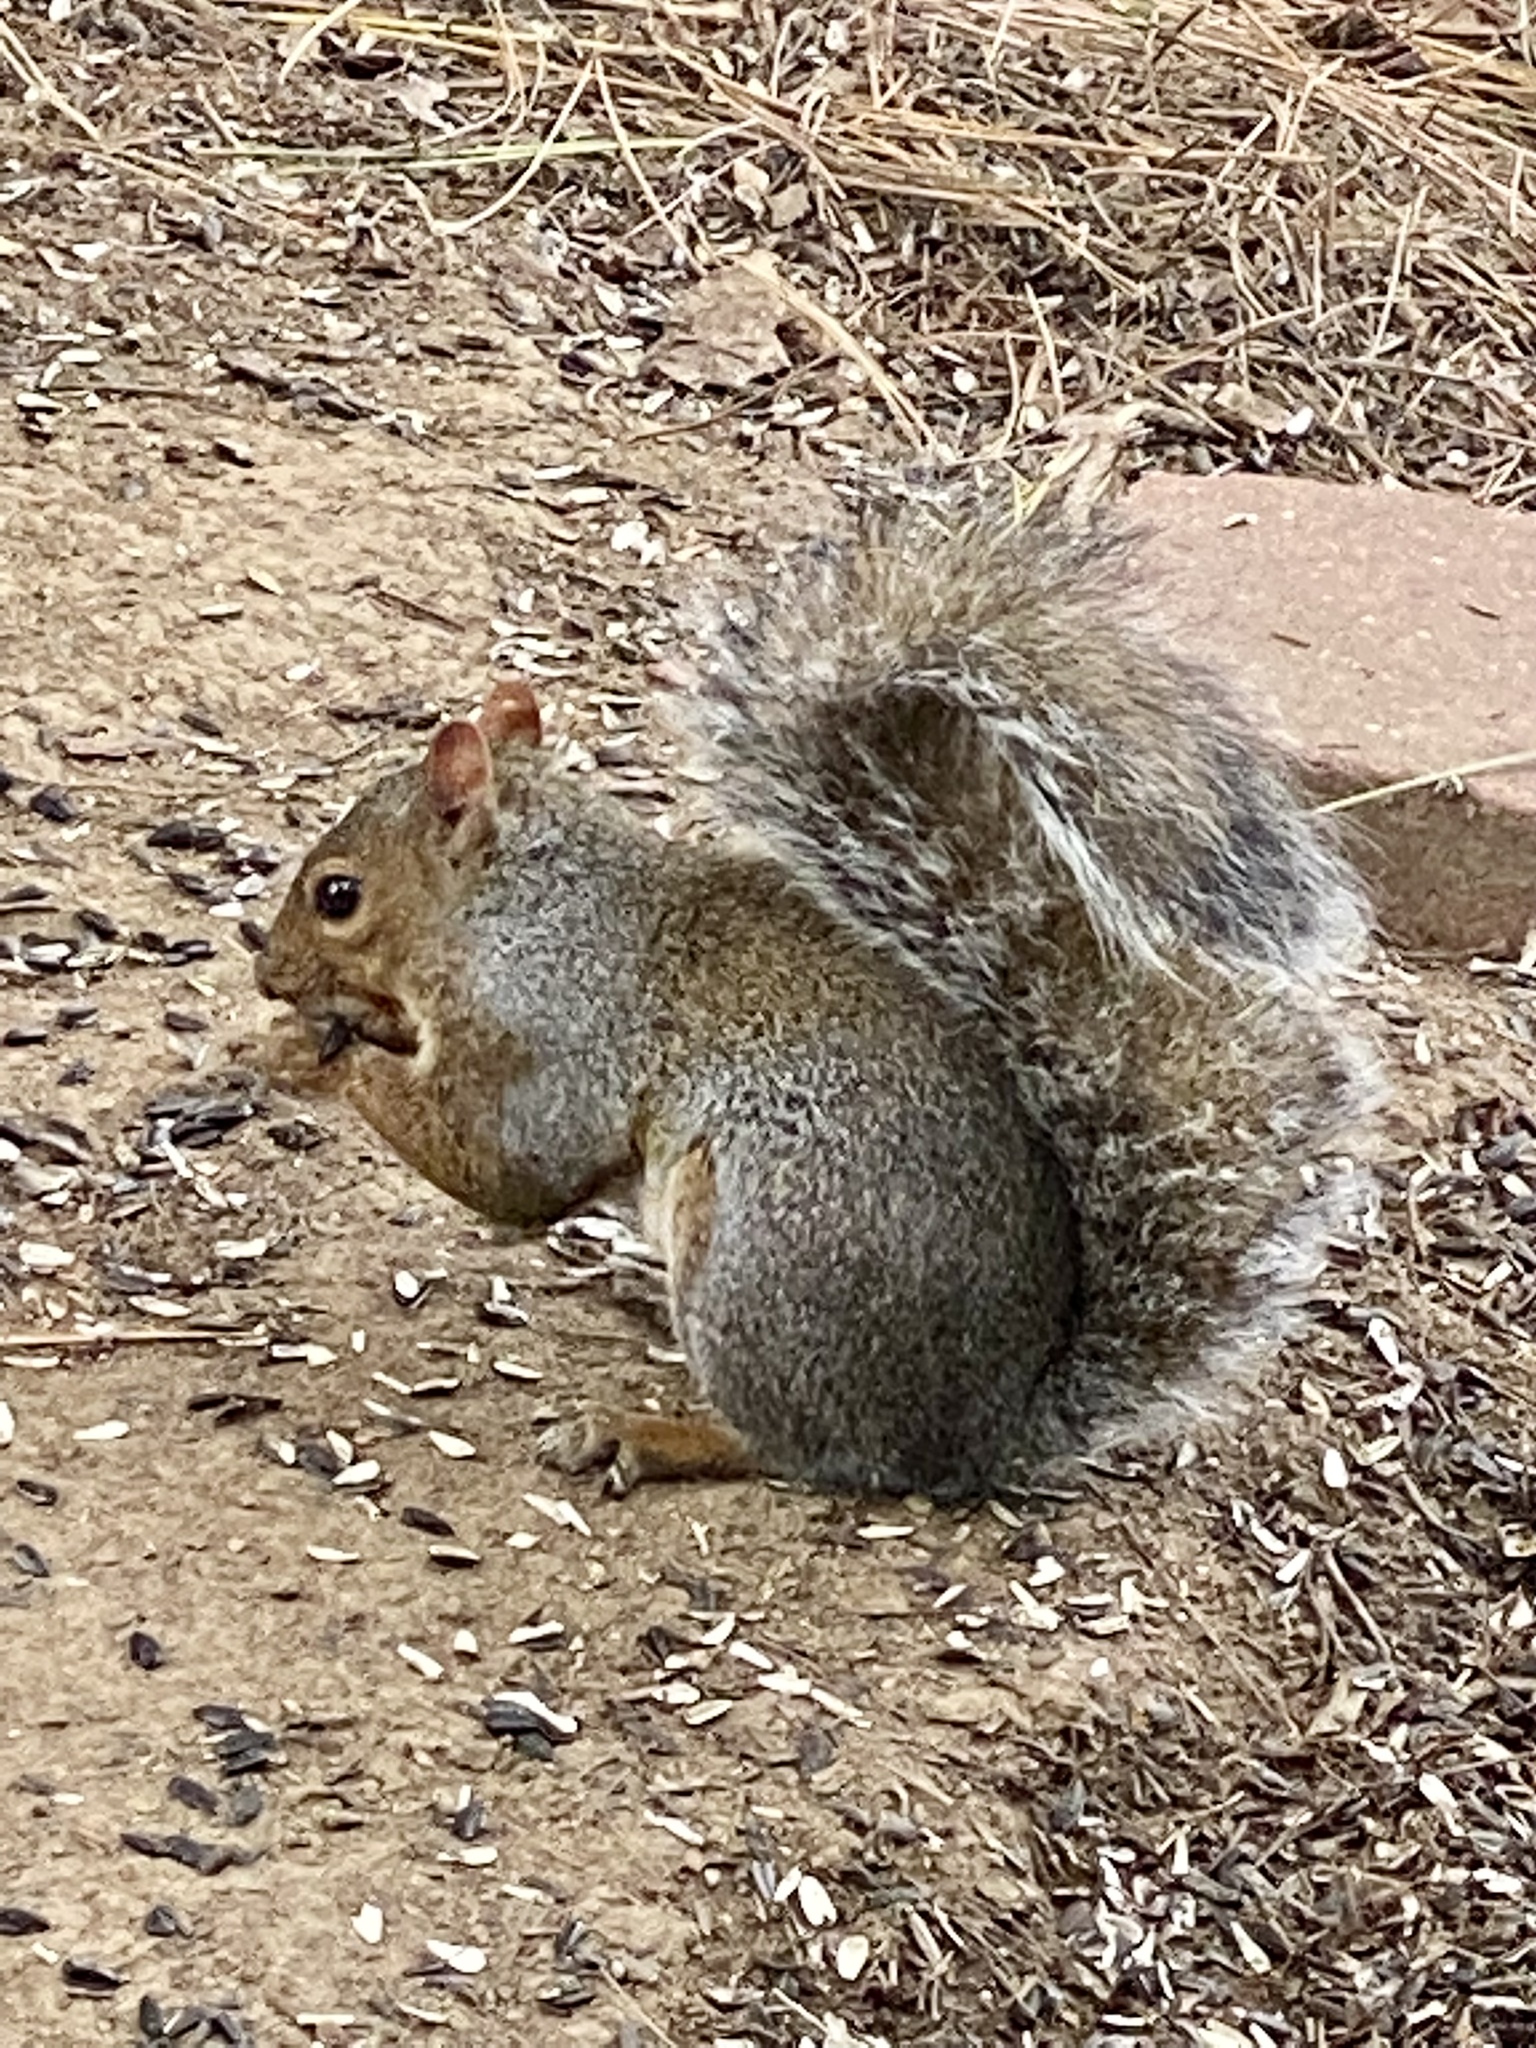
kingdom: Animalia
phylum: Chordata
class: Mammalia
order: Rodentia
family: Sciuridae
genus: Sciurus
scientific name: Sciurus carolinensis
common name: Eastern gray squirrel
